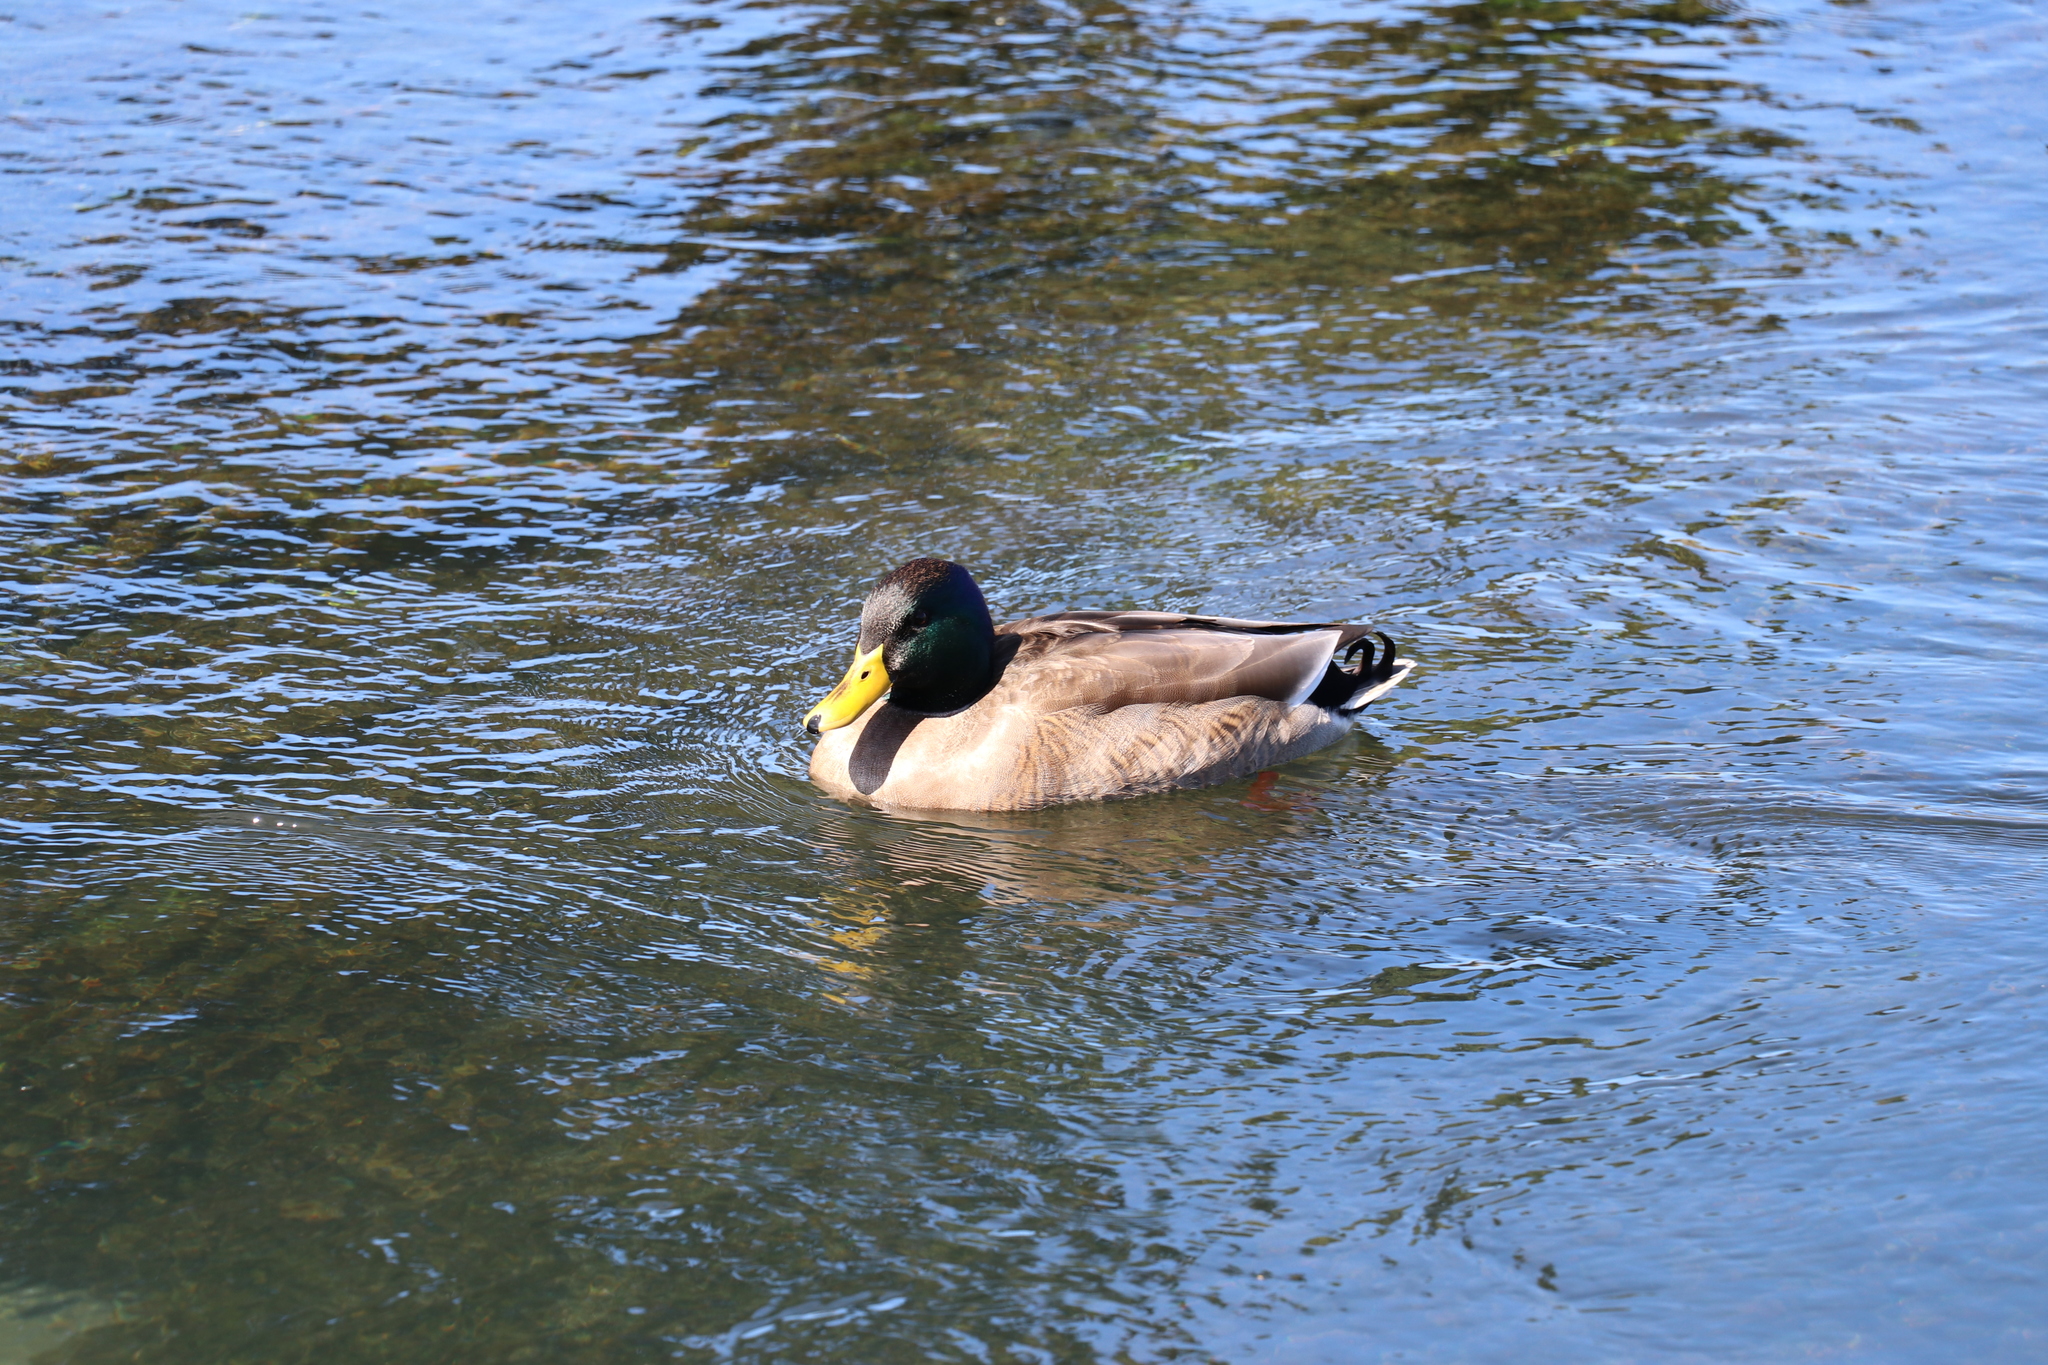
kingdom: Animalia
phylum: Chordata
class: Aves
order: Anseriformes
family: Anatidae
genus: Anas
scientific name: Anas platyrhynchos
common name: Mallard
